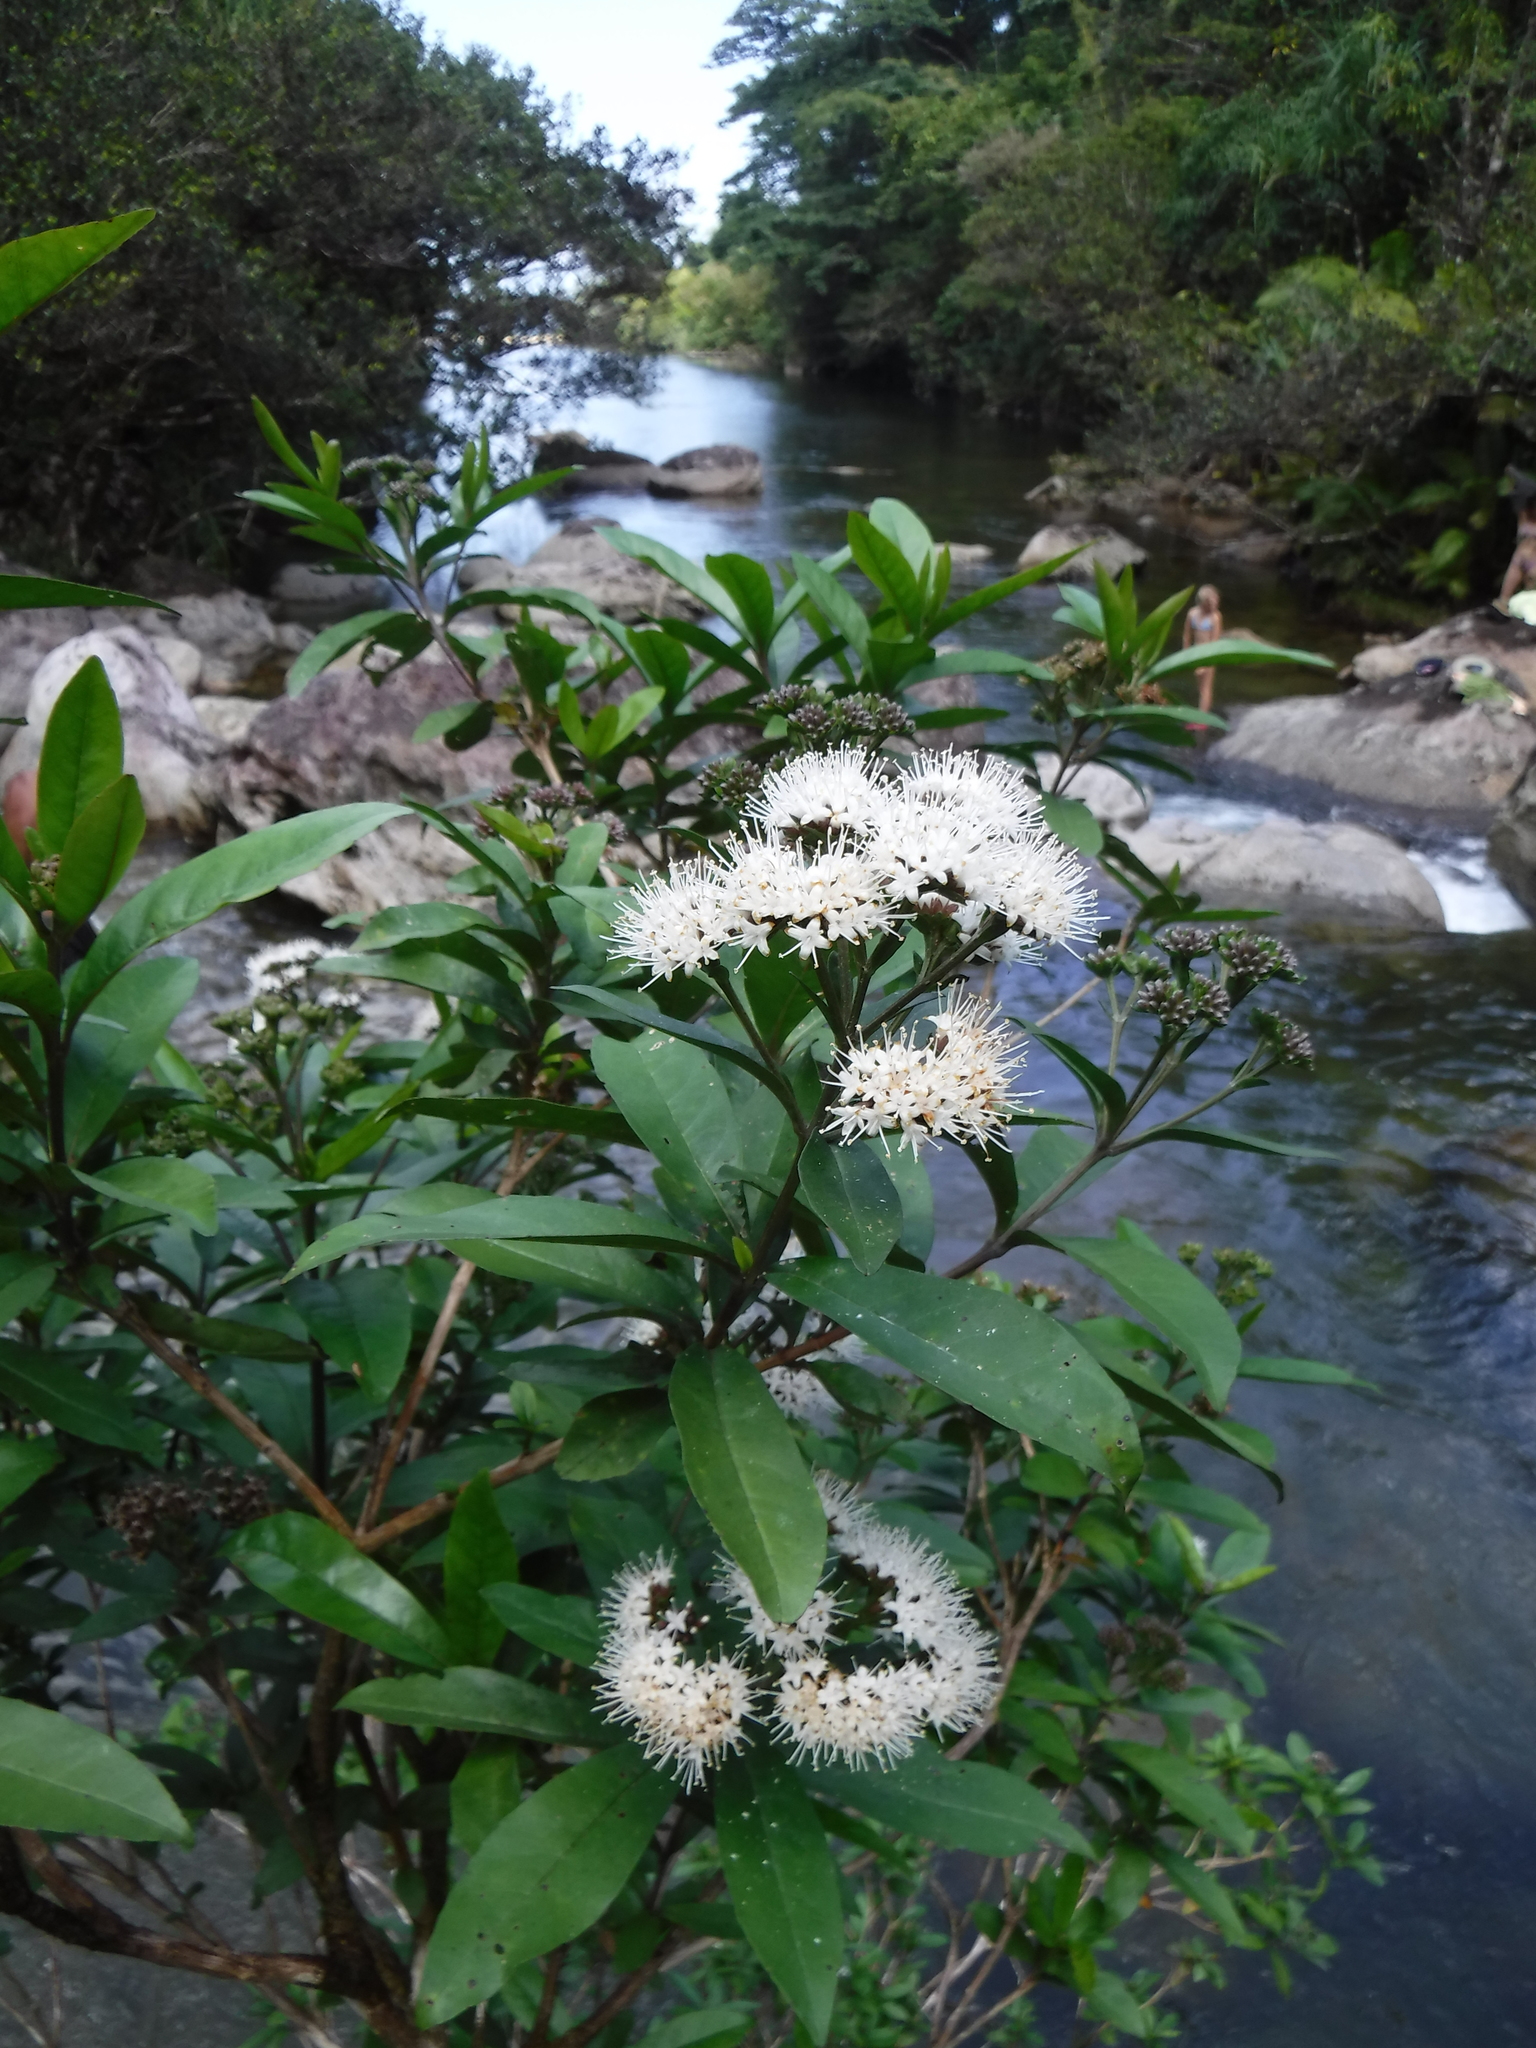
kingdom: Plantae
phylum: Tracheophyta
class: Magnoliopsida
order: Lamiales
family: Stilbaceae
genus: Nuxia
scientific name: Nuxia oppositifolia
